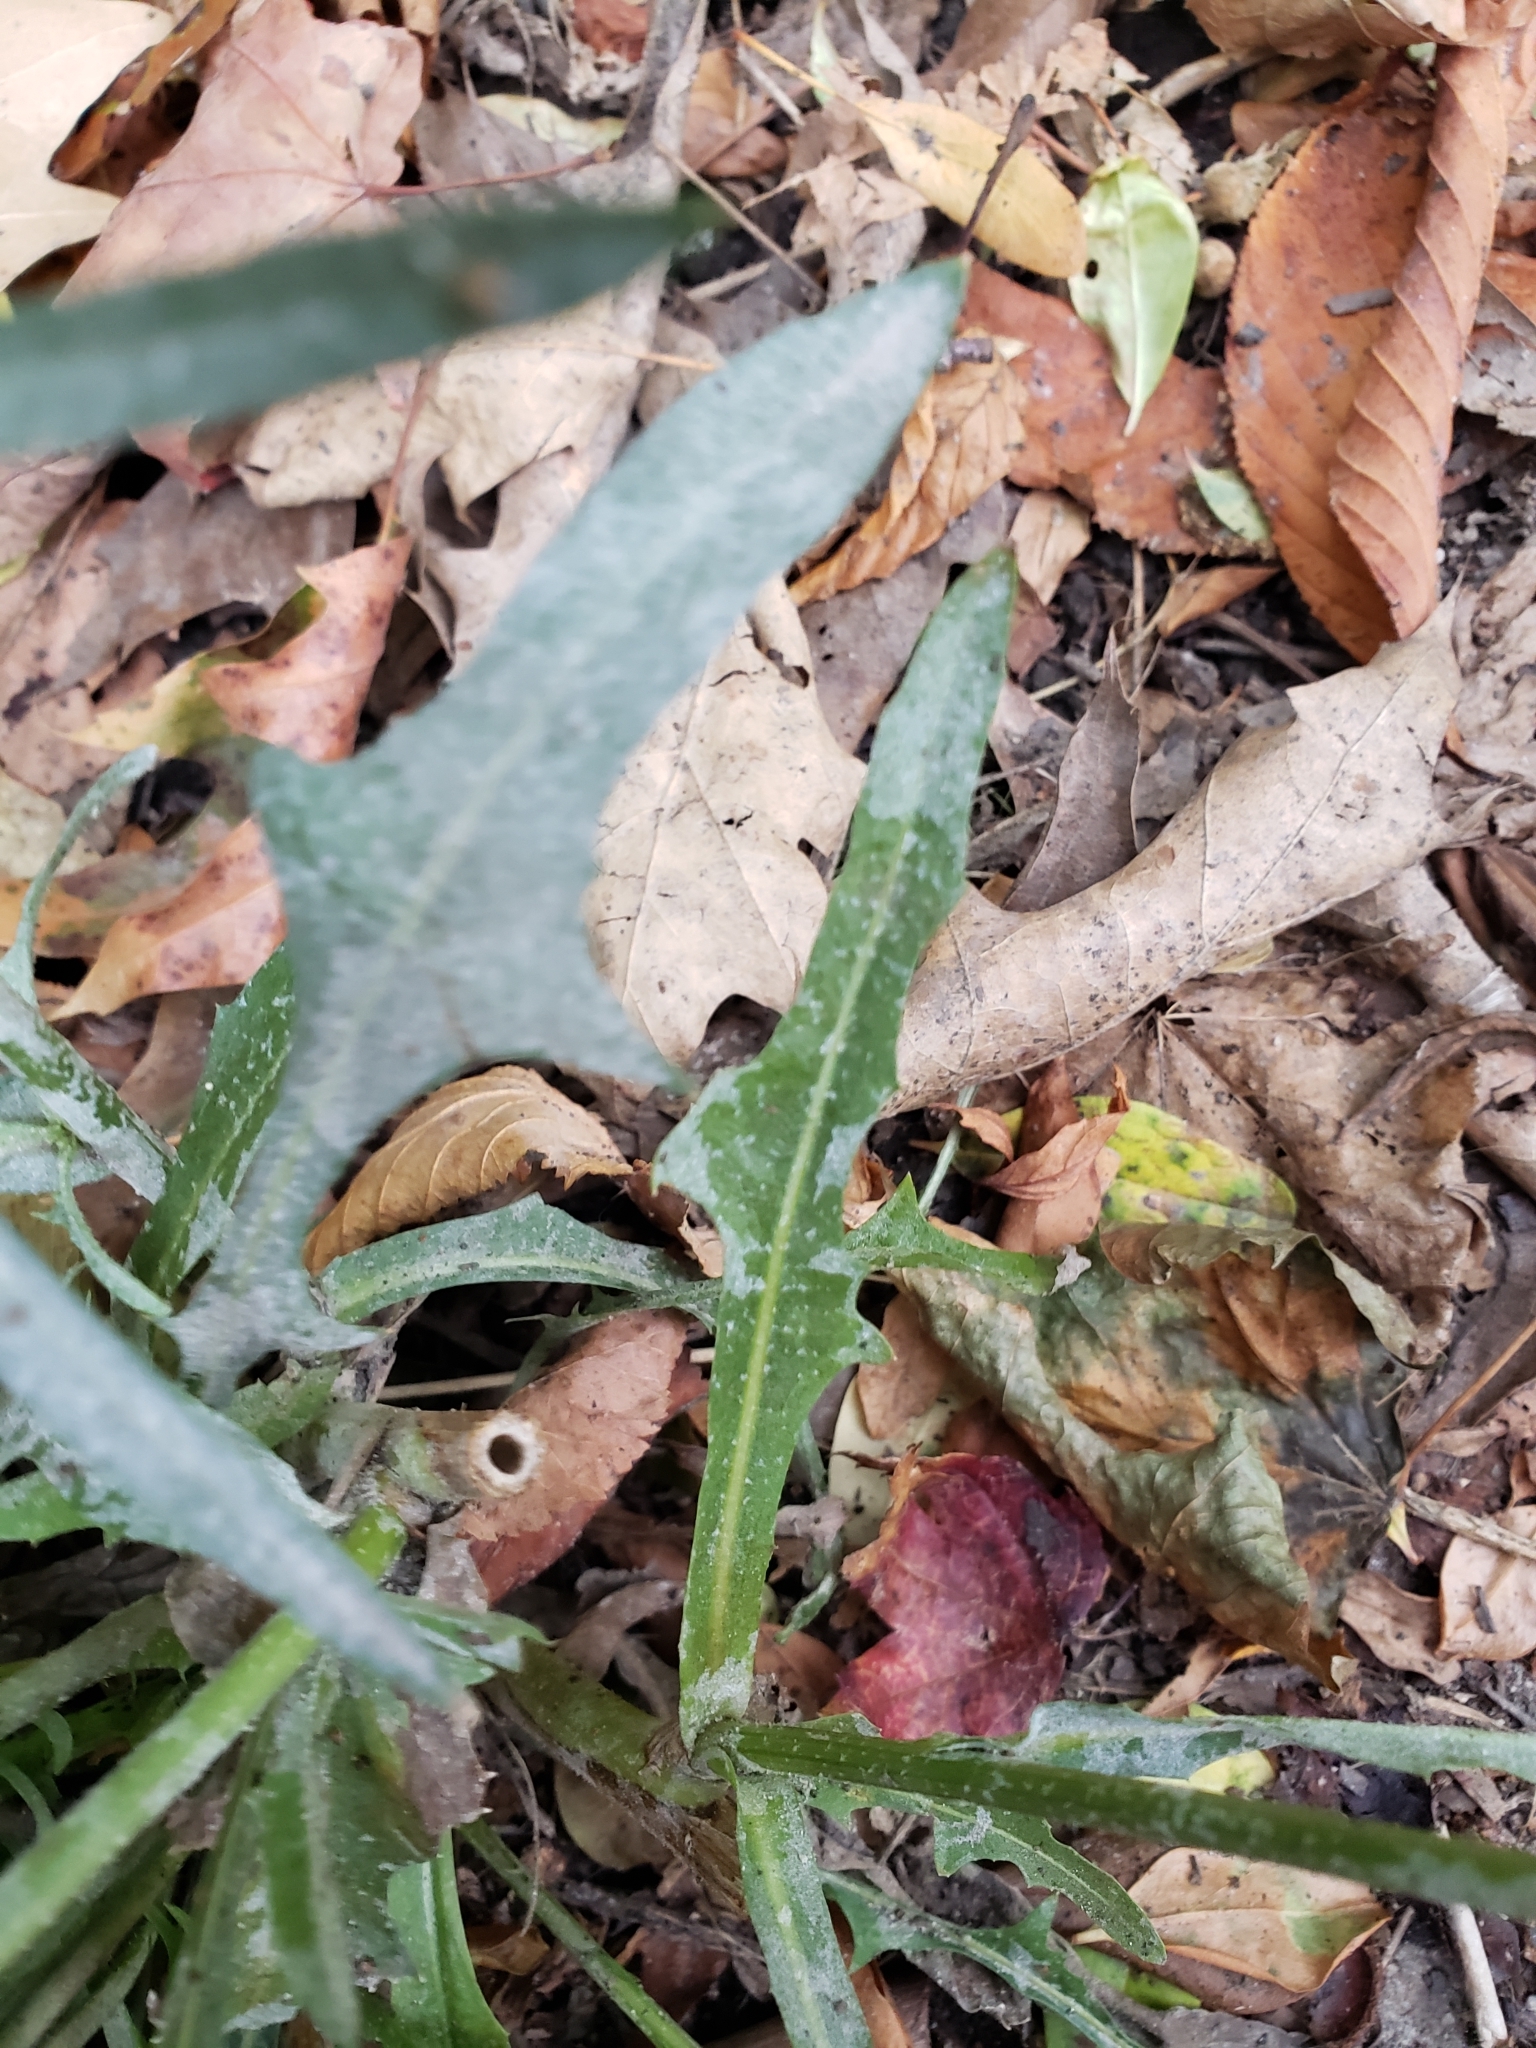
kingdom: Plantae
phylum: Tracheophyta
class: Magnoliopsida
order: Asterales
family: Asteraceae
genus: Cichorium
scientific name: Cichorium intybus
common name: Chicory
